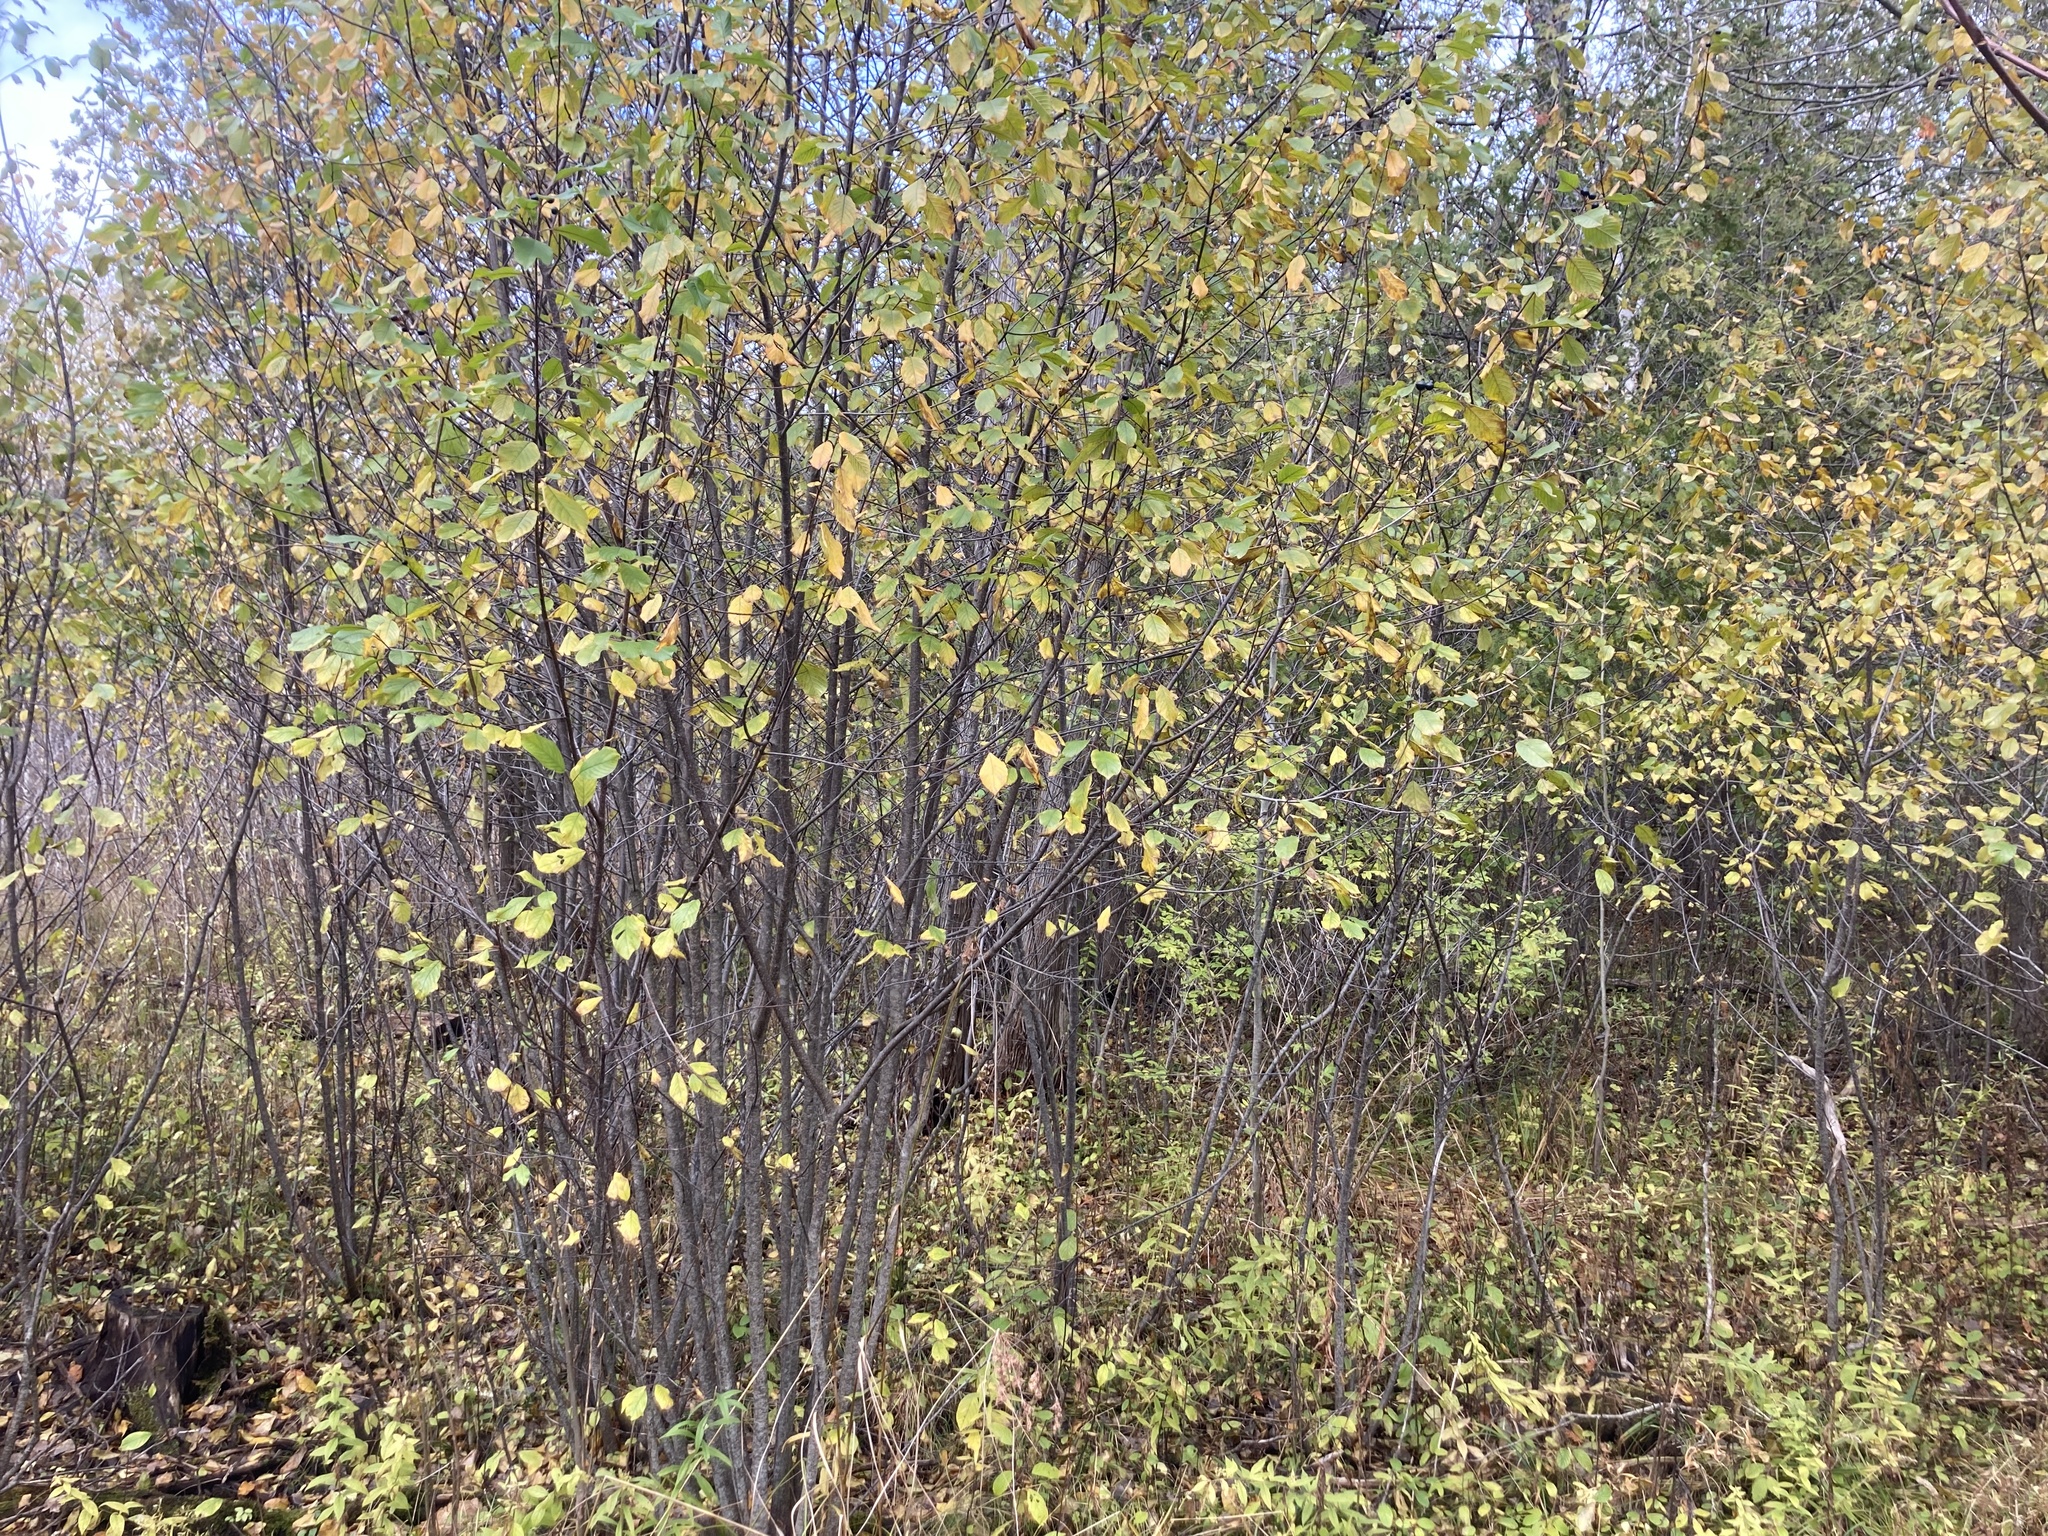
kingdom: Plantae
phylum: Tracheophyta
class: Magnoliopsida
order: Rosales
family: Rhamnaceae
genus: Frangula
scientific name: Frangula alnus
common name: Alder buckthorn
